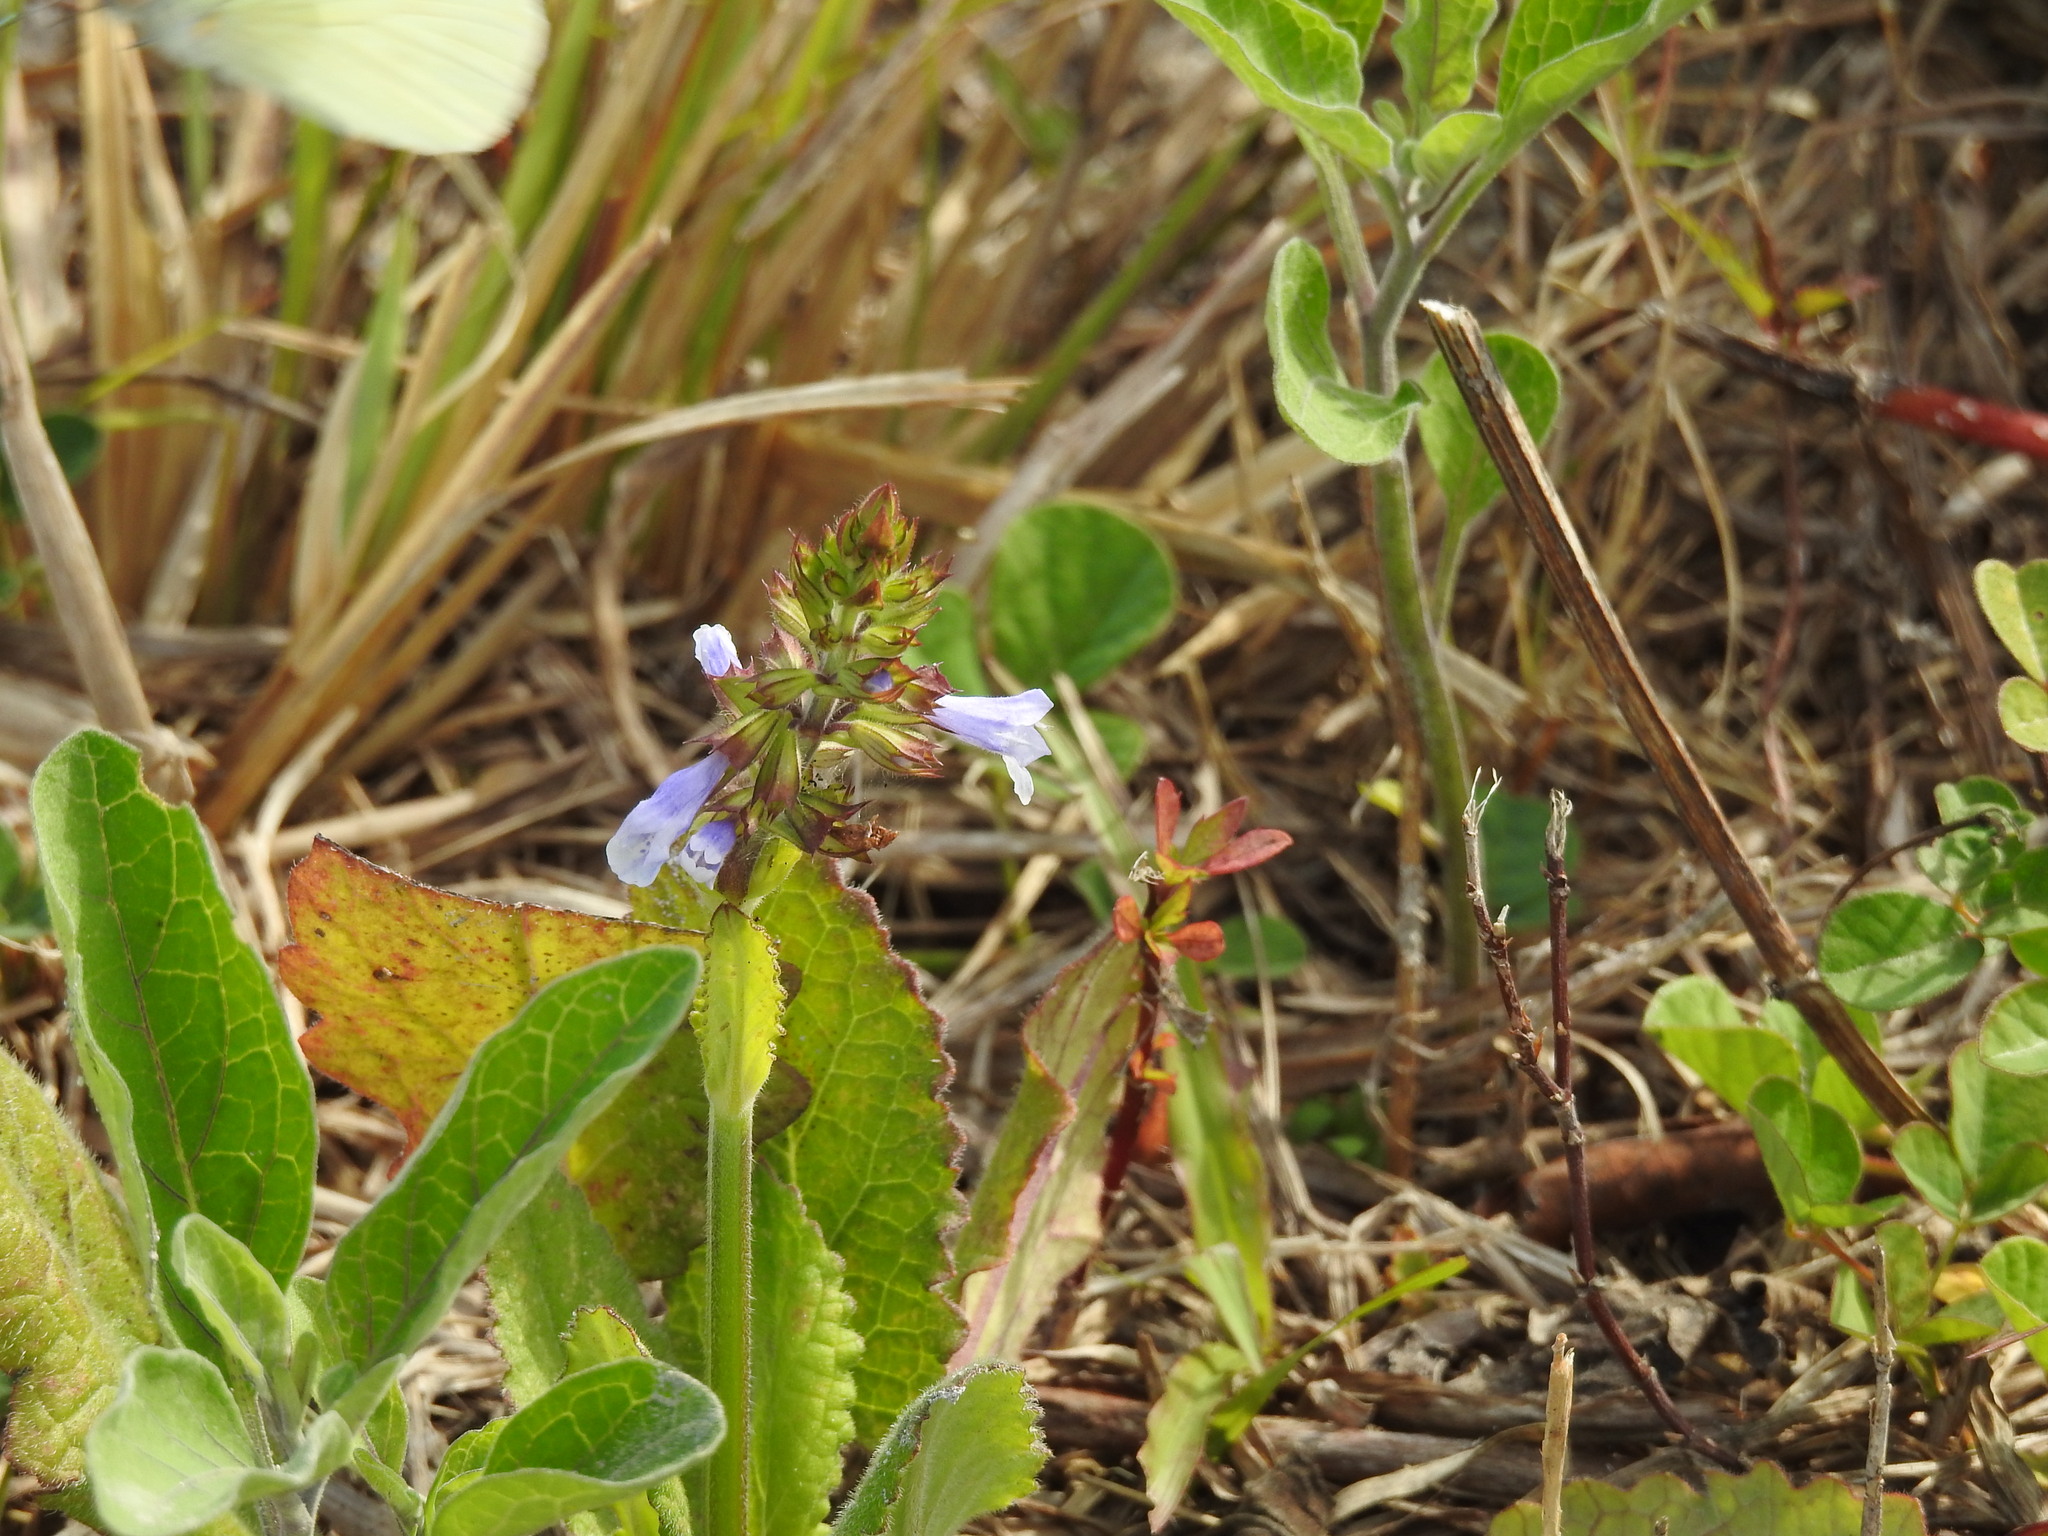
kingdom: Plantae
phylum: Tracheophyta
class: Magnoliopsida
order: Lamiales
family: Lamiaceae
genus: Salvia
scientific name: Salvia lyrata
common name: Cancerweed
